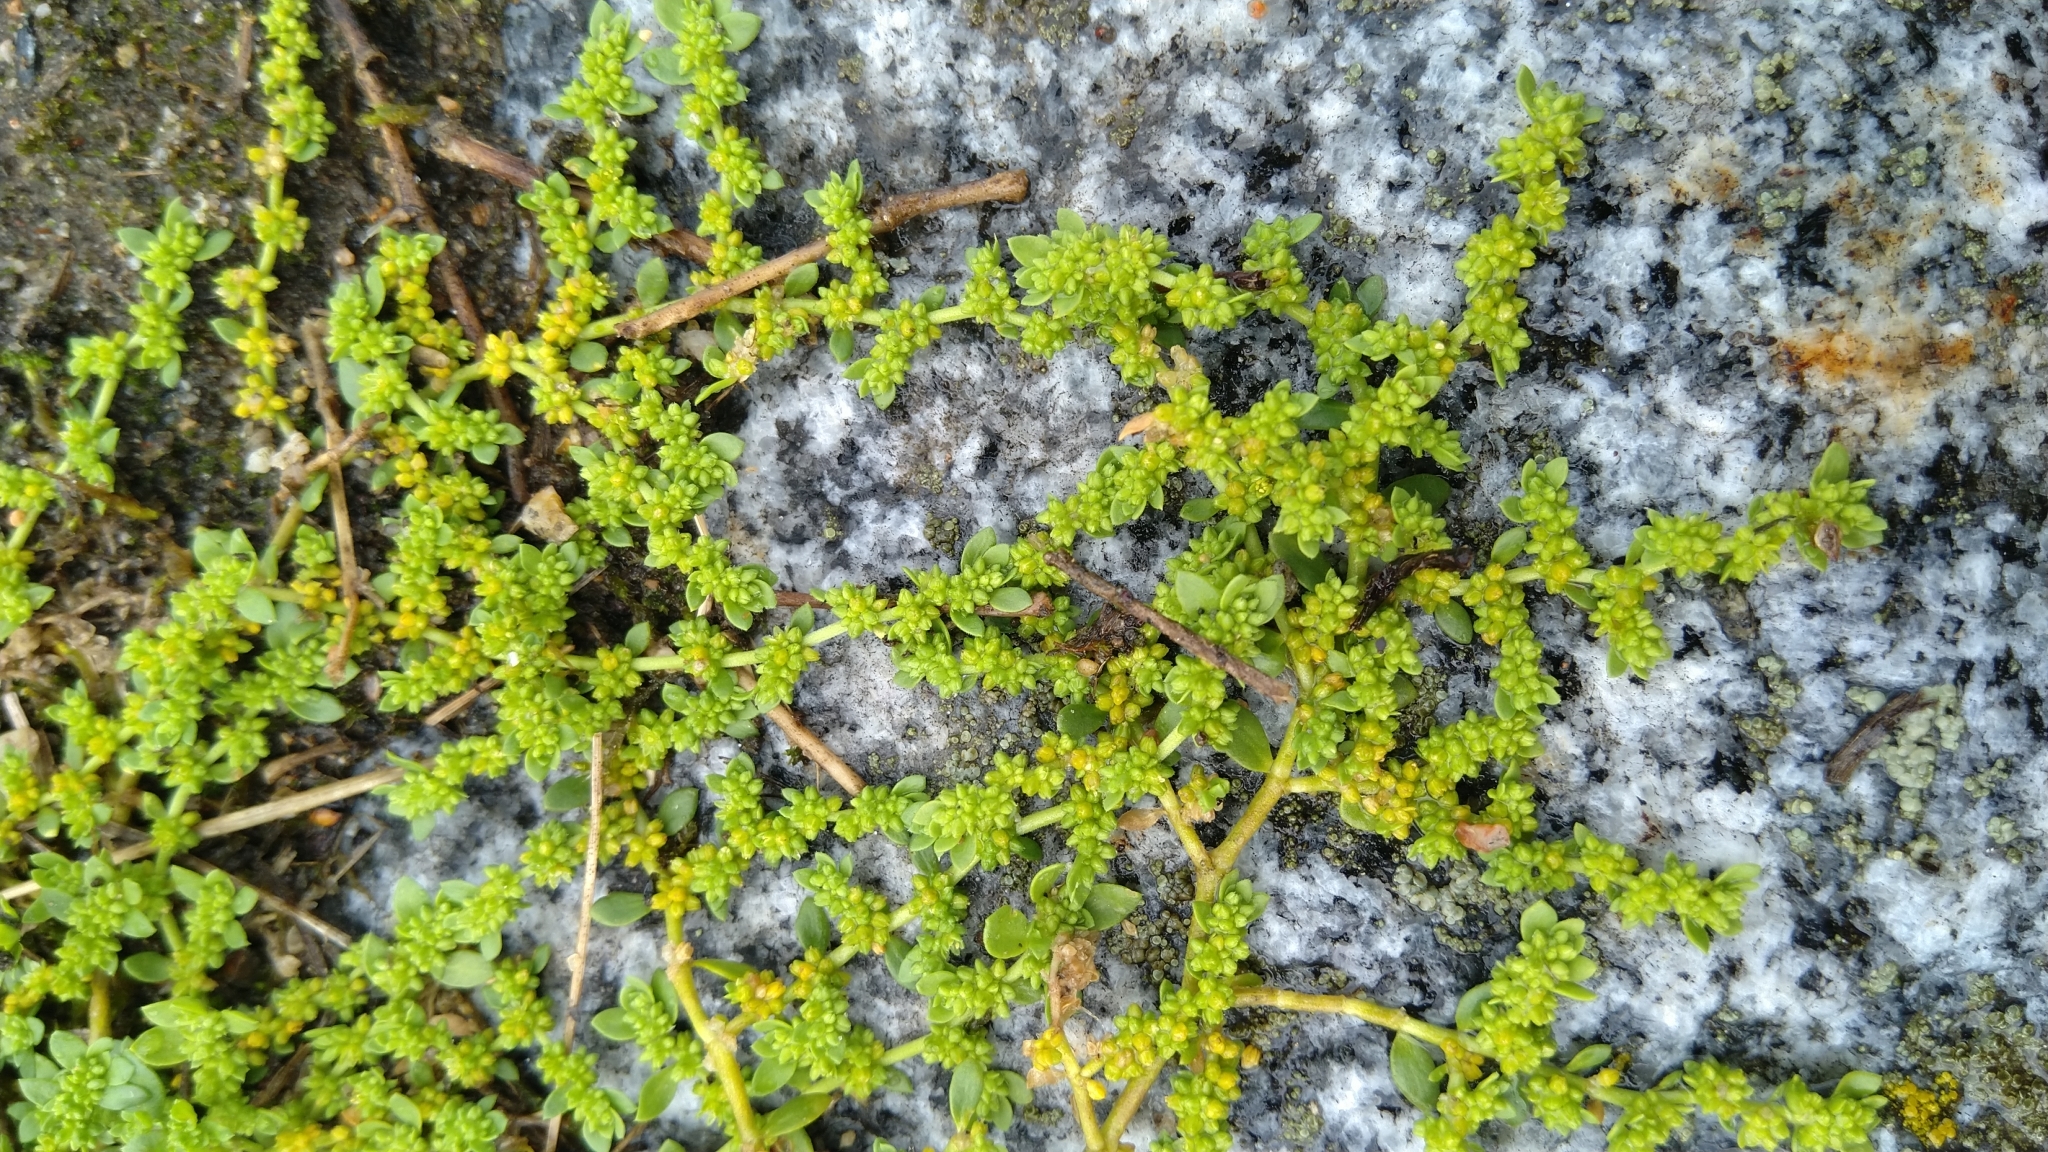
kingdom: Plantae
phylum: Tracheophyta
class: Magnoliopsida
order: Caryophyllales
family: Caryophyllaceae
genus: Herniaria
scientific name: Herniaria glabra
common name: Smooth rupturewort
